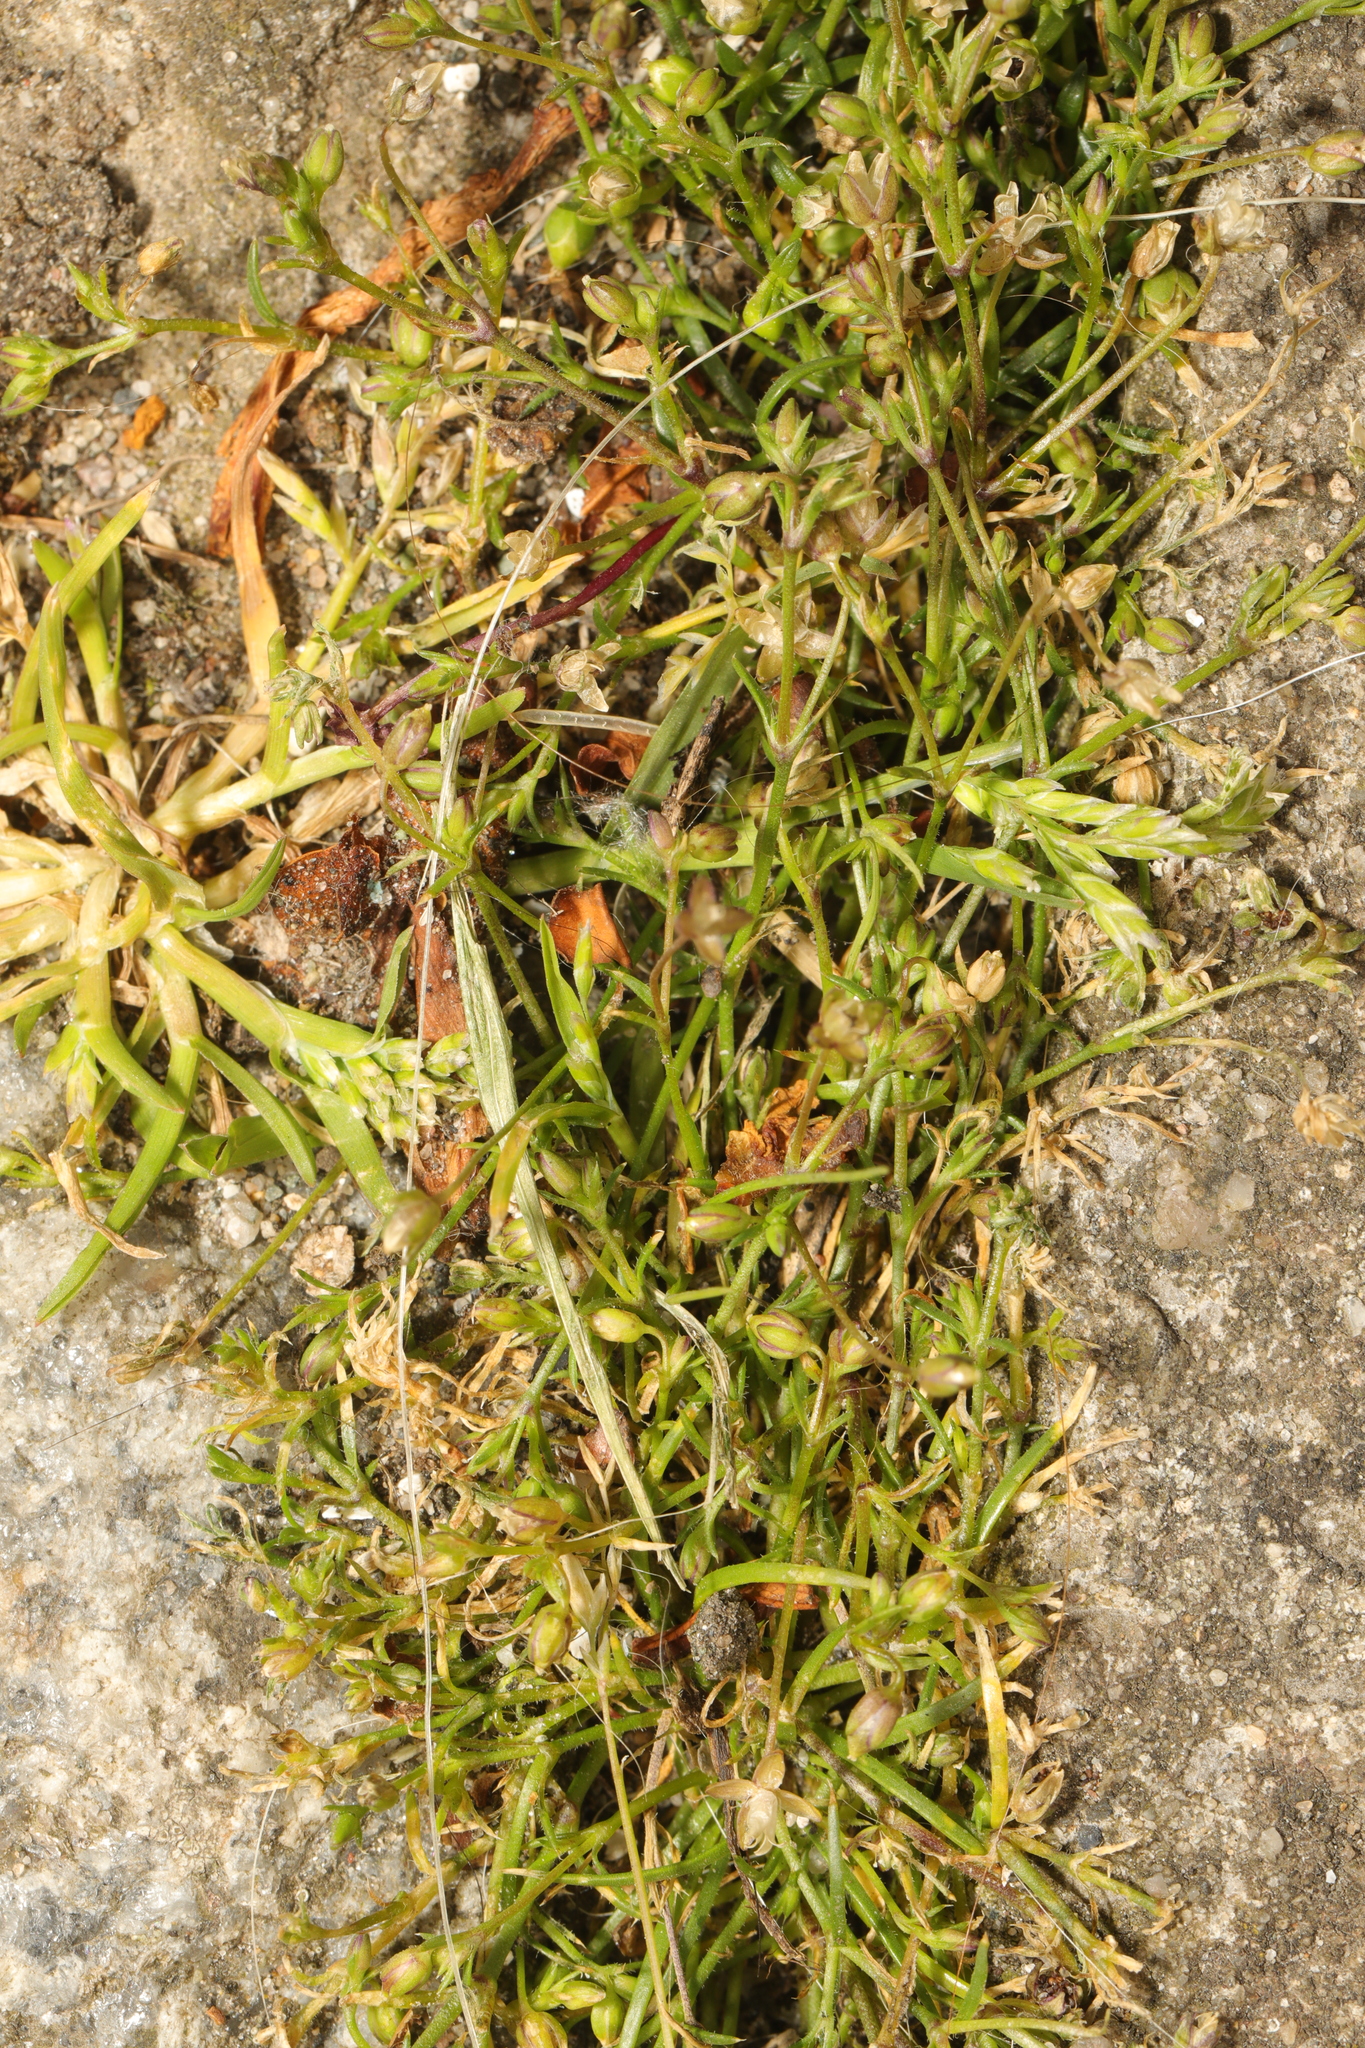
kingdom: Plantae
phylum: Tracheophyta
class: Magnoliopsida
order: Caryophyllales
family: Caryophyllaceae
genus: Sagina
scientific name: Sagina procumbens
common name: Procumbent pearlwort
